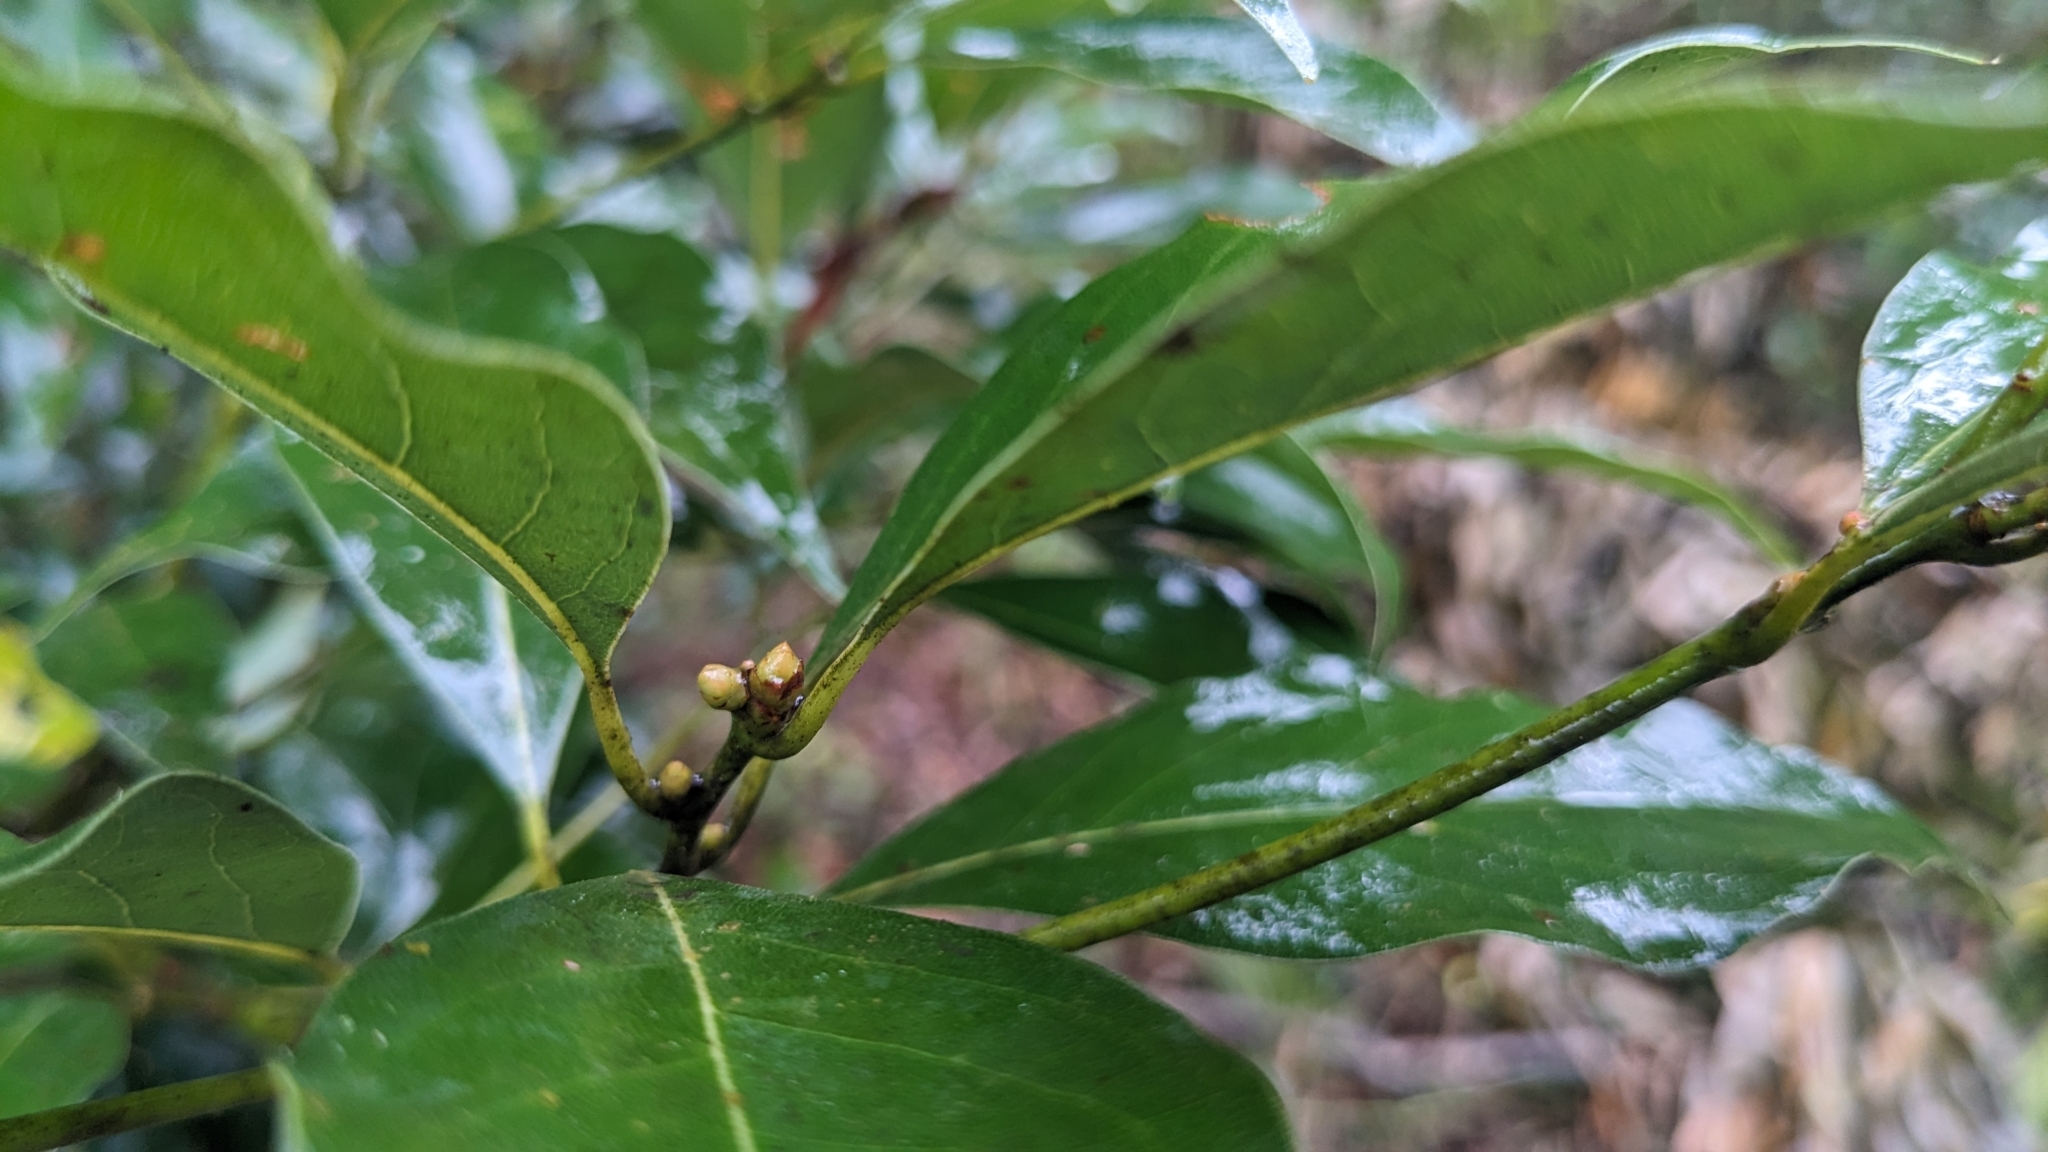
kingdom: Plantae
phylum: Tracheophyta
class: Magnoliopsida
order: Laurales
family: Lauraceae
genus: Cinnamomum
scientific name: Cinnamomum philippinense
